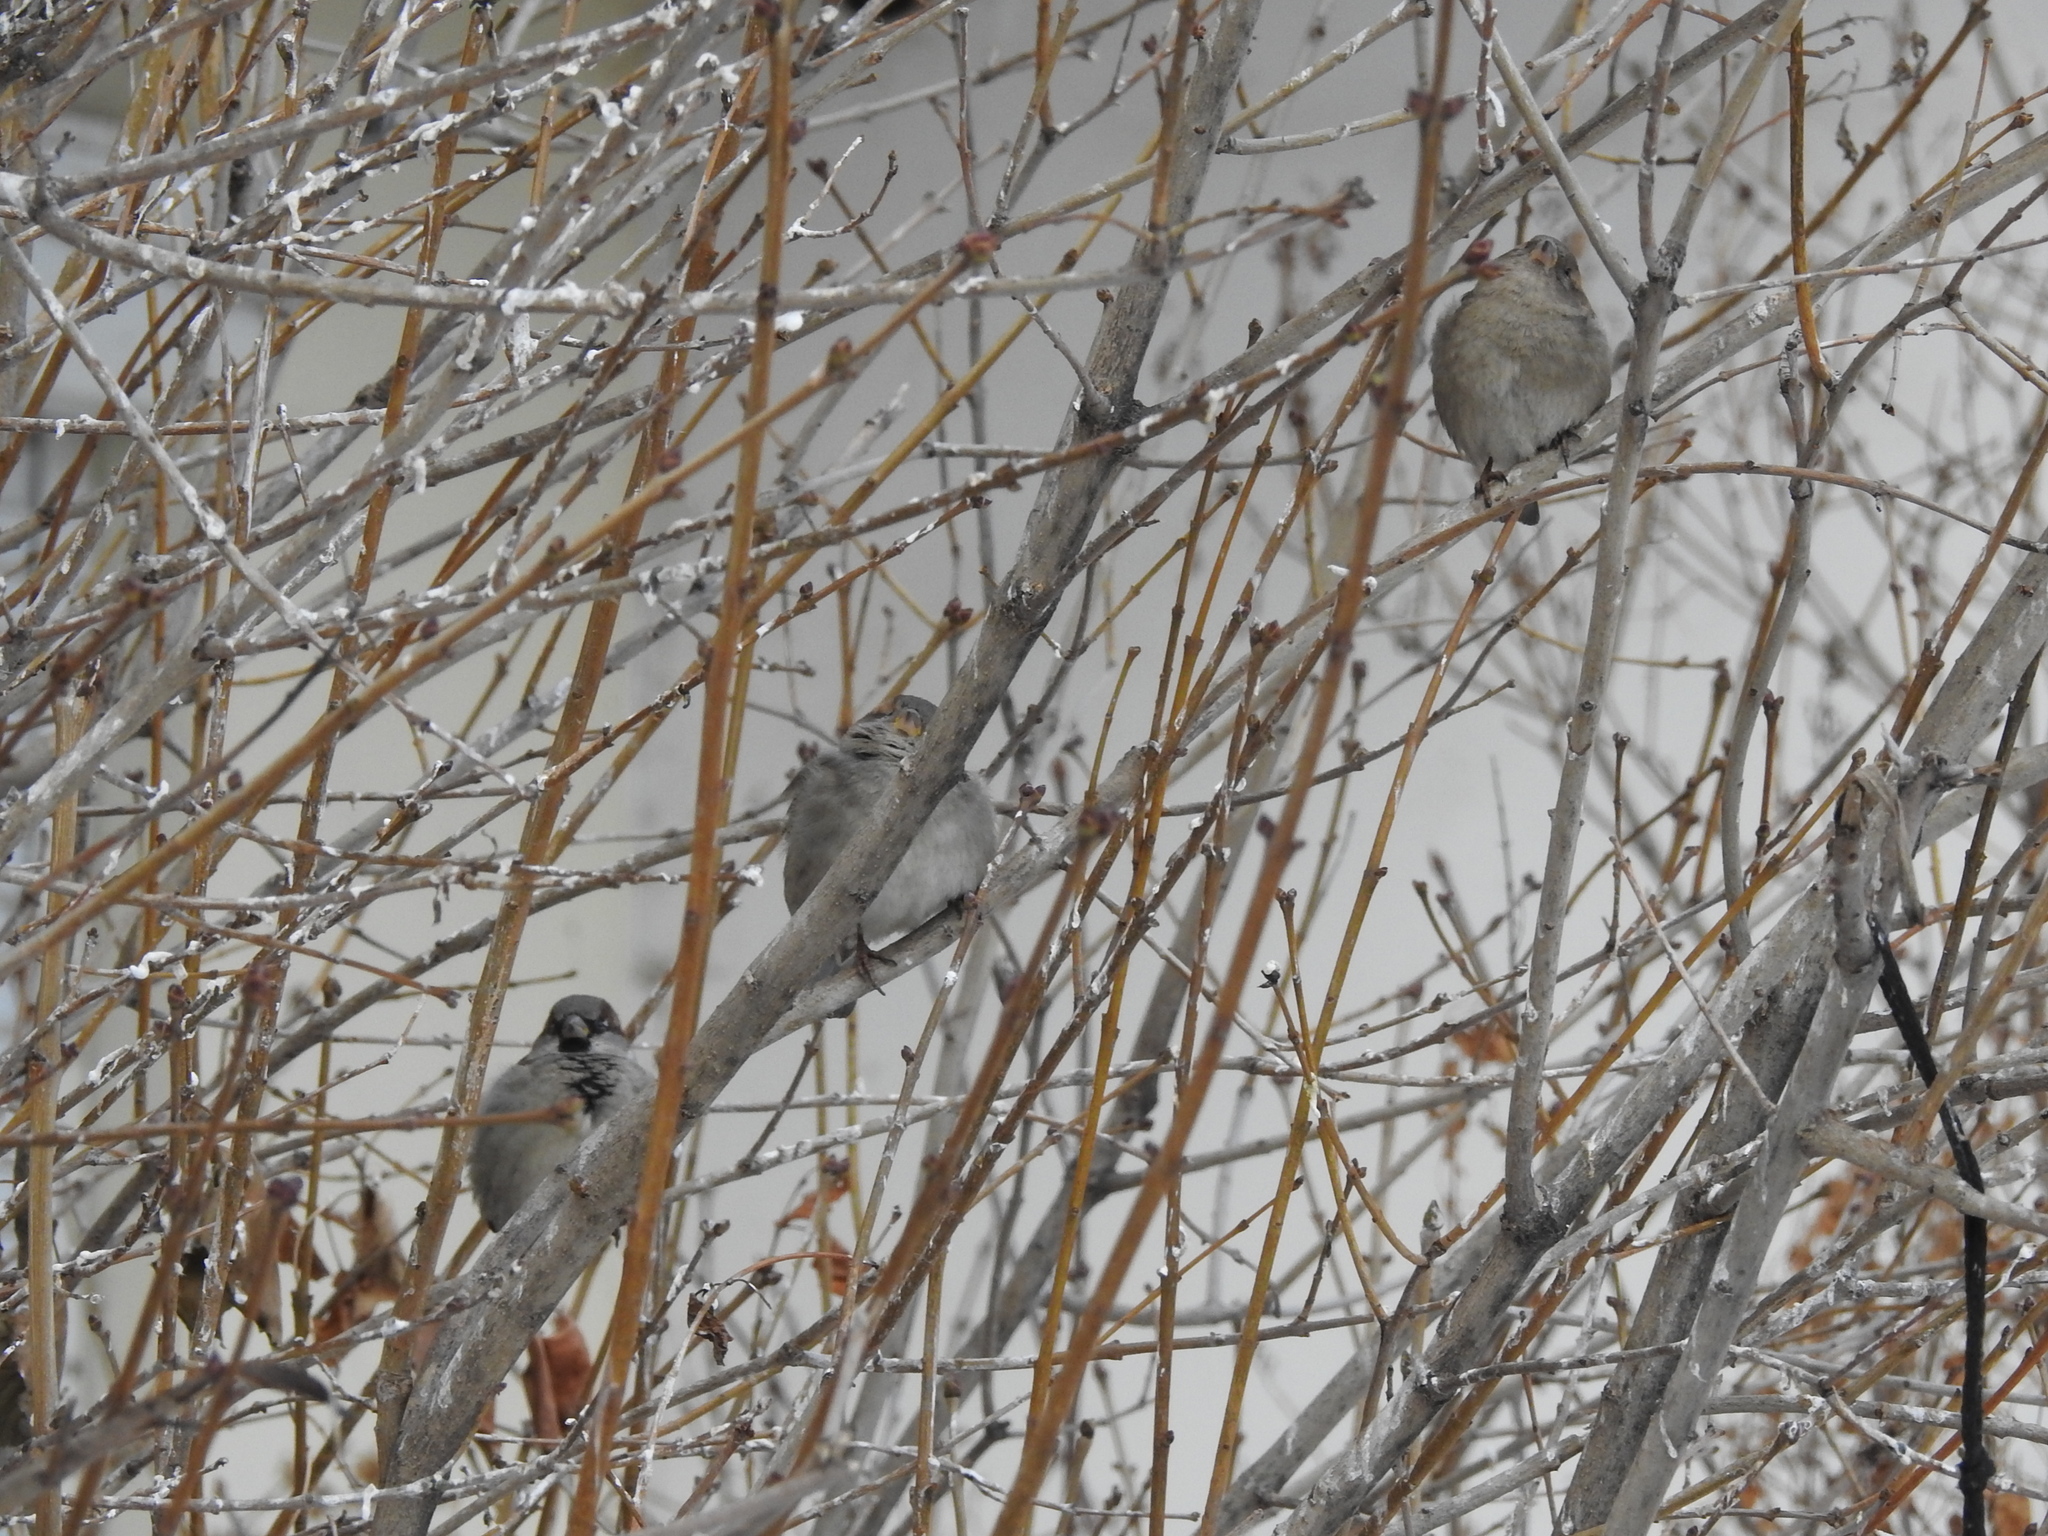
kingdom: Animalia
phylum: Chordata
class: Aves
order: Passeriformes
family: Passeridae
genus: Passer
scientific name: Passer domesticus
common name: House sparrow
